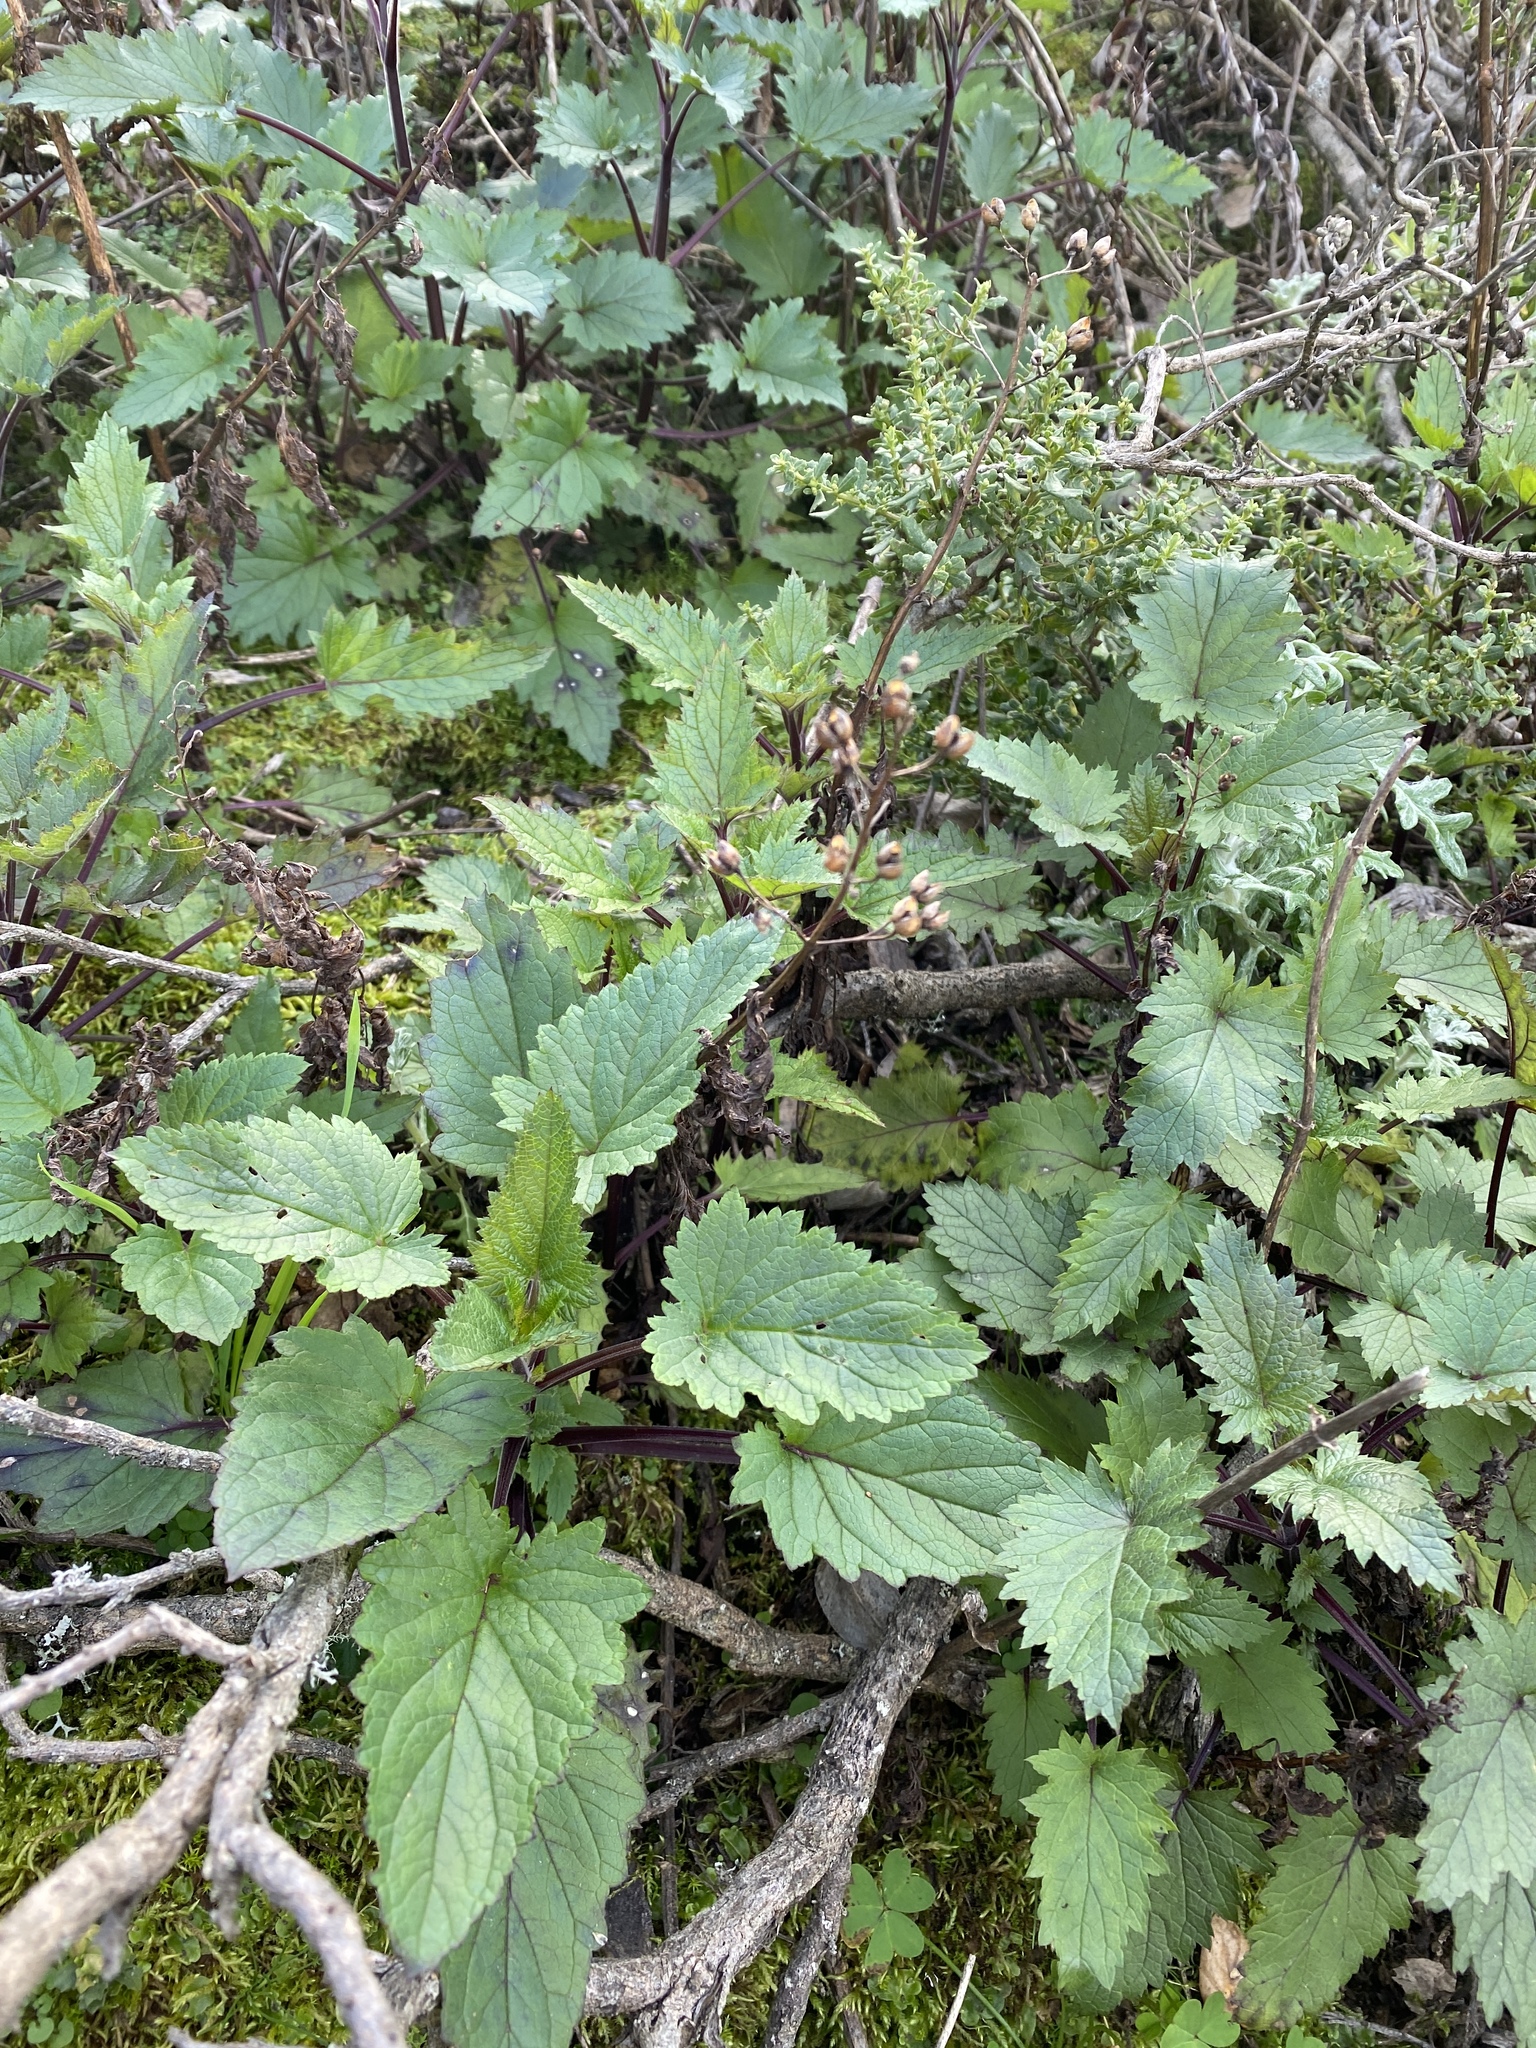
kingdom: Plantae
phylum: Tracheophyta
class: Magnoliopsida
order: Lamiales
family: Scrophulariaceae
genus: Scrophularia
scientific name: Scrophularia californica
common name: California figwort
